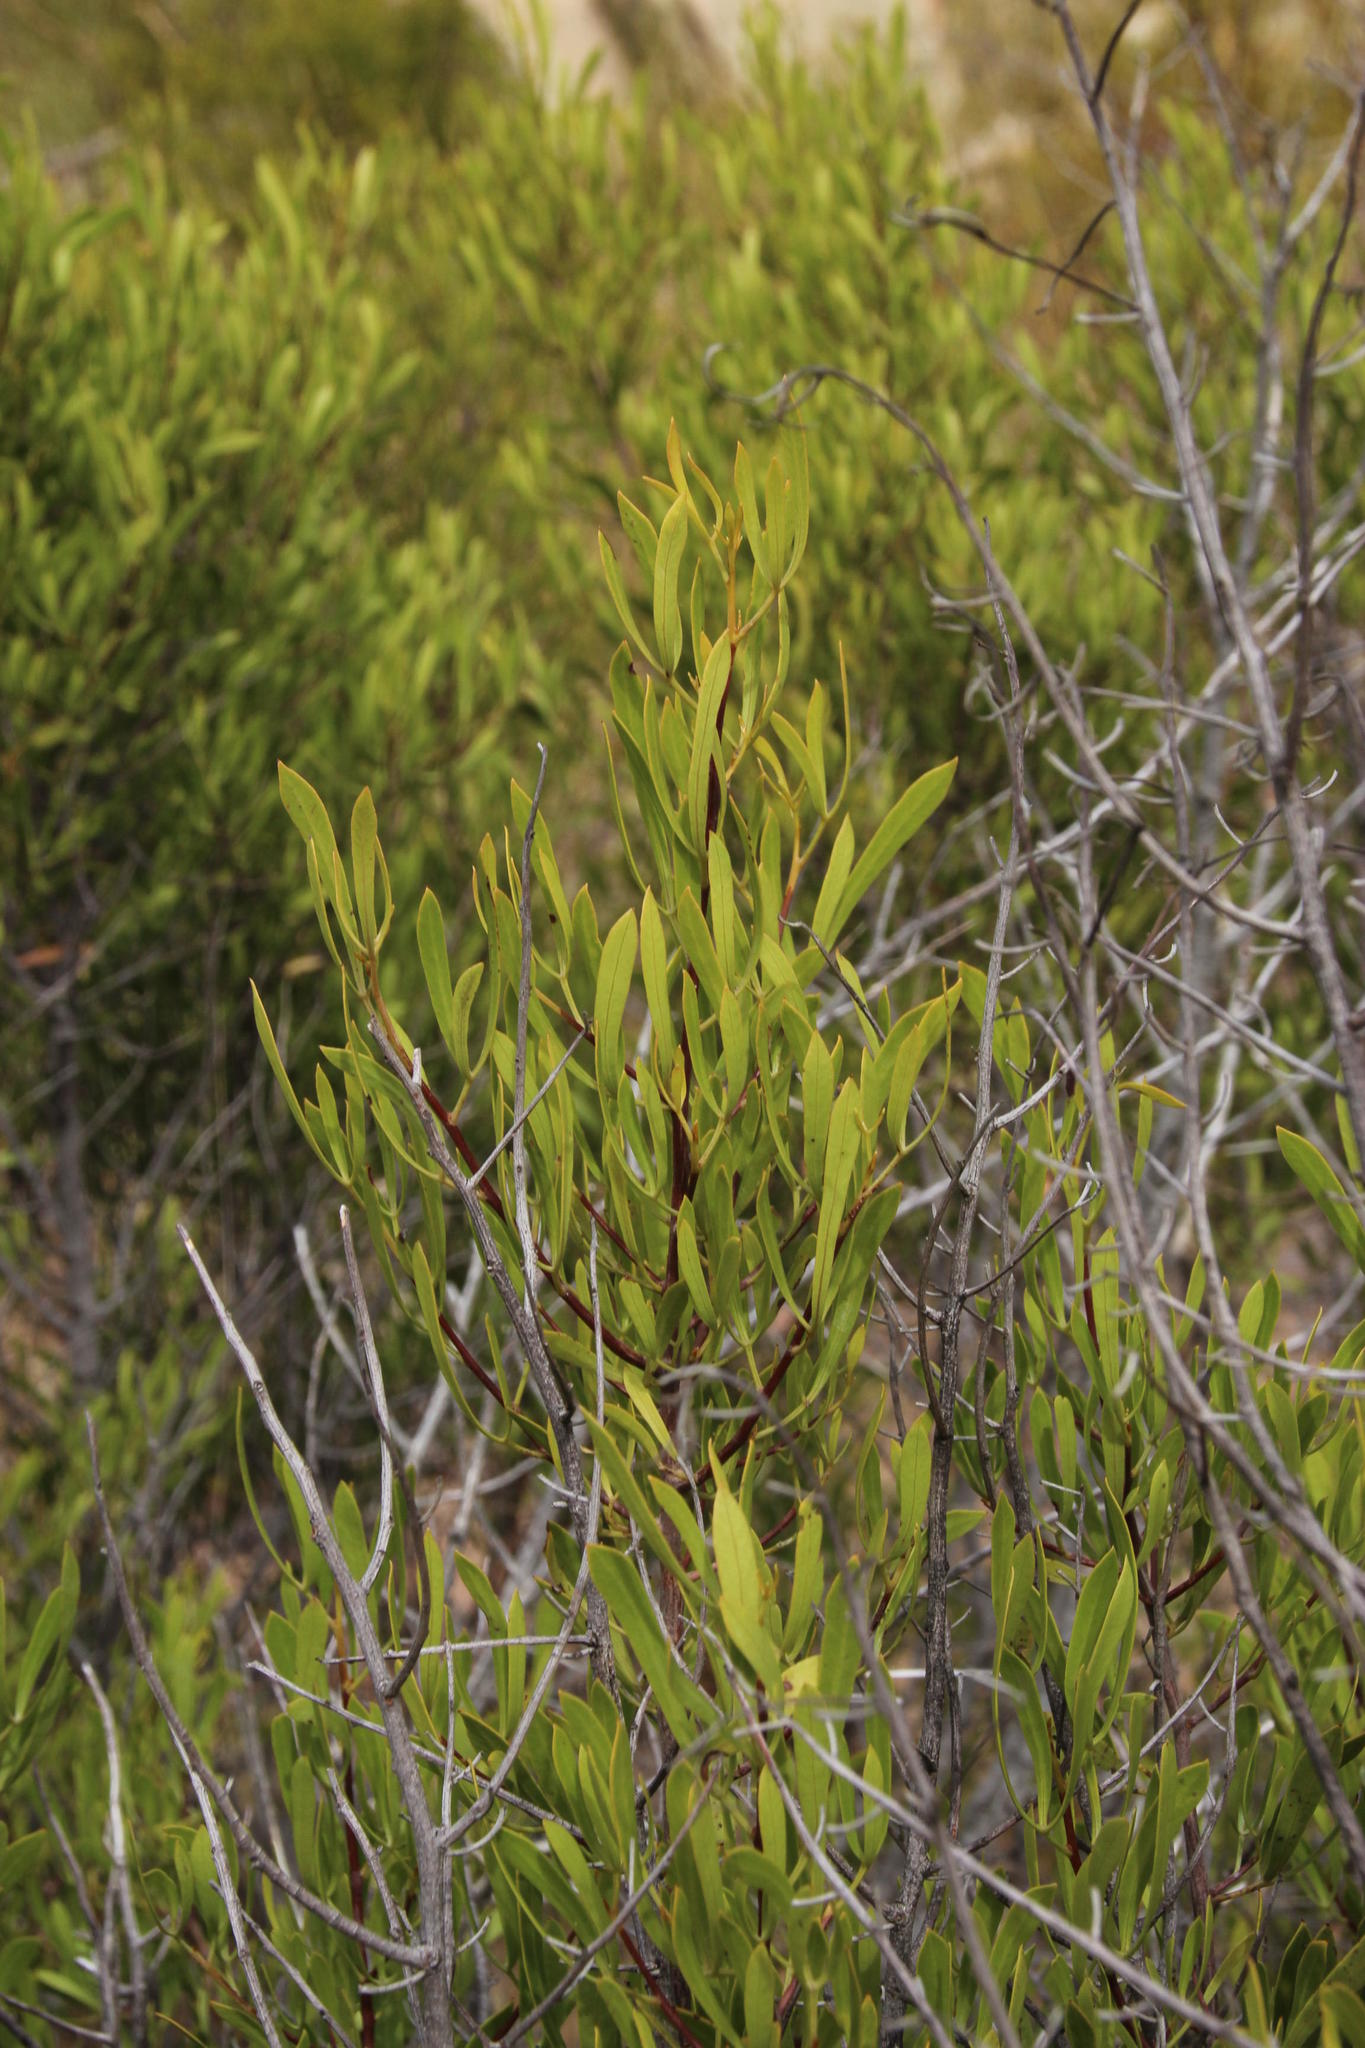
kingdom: Plantae
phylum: Tracheophyta
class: Magnoliopsida
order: Sapindales
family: Anacardiaceae
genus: Searsia
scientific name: Searsia rimosa
